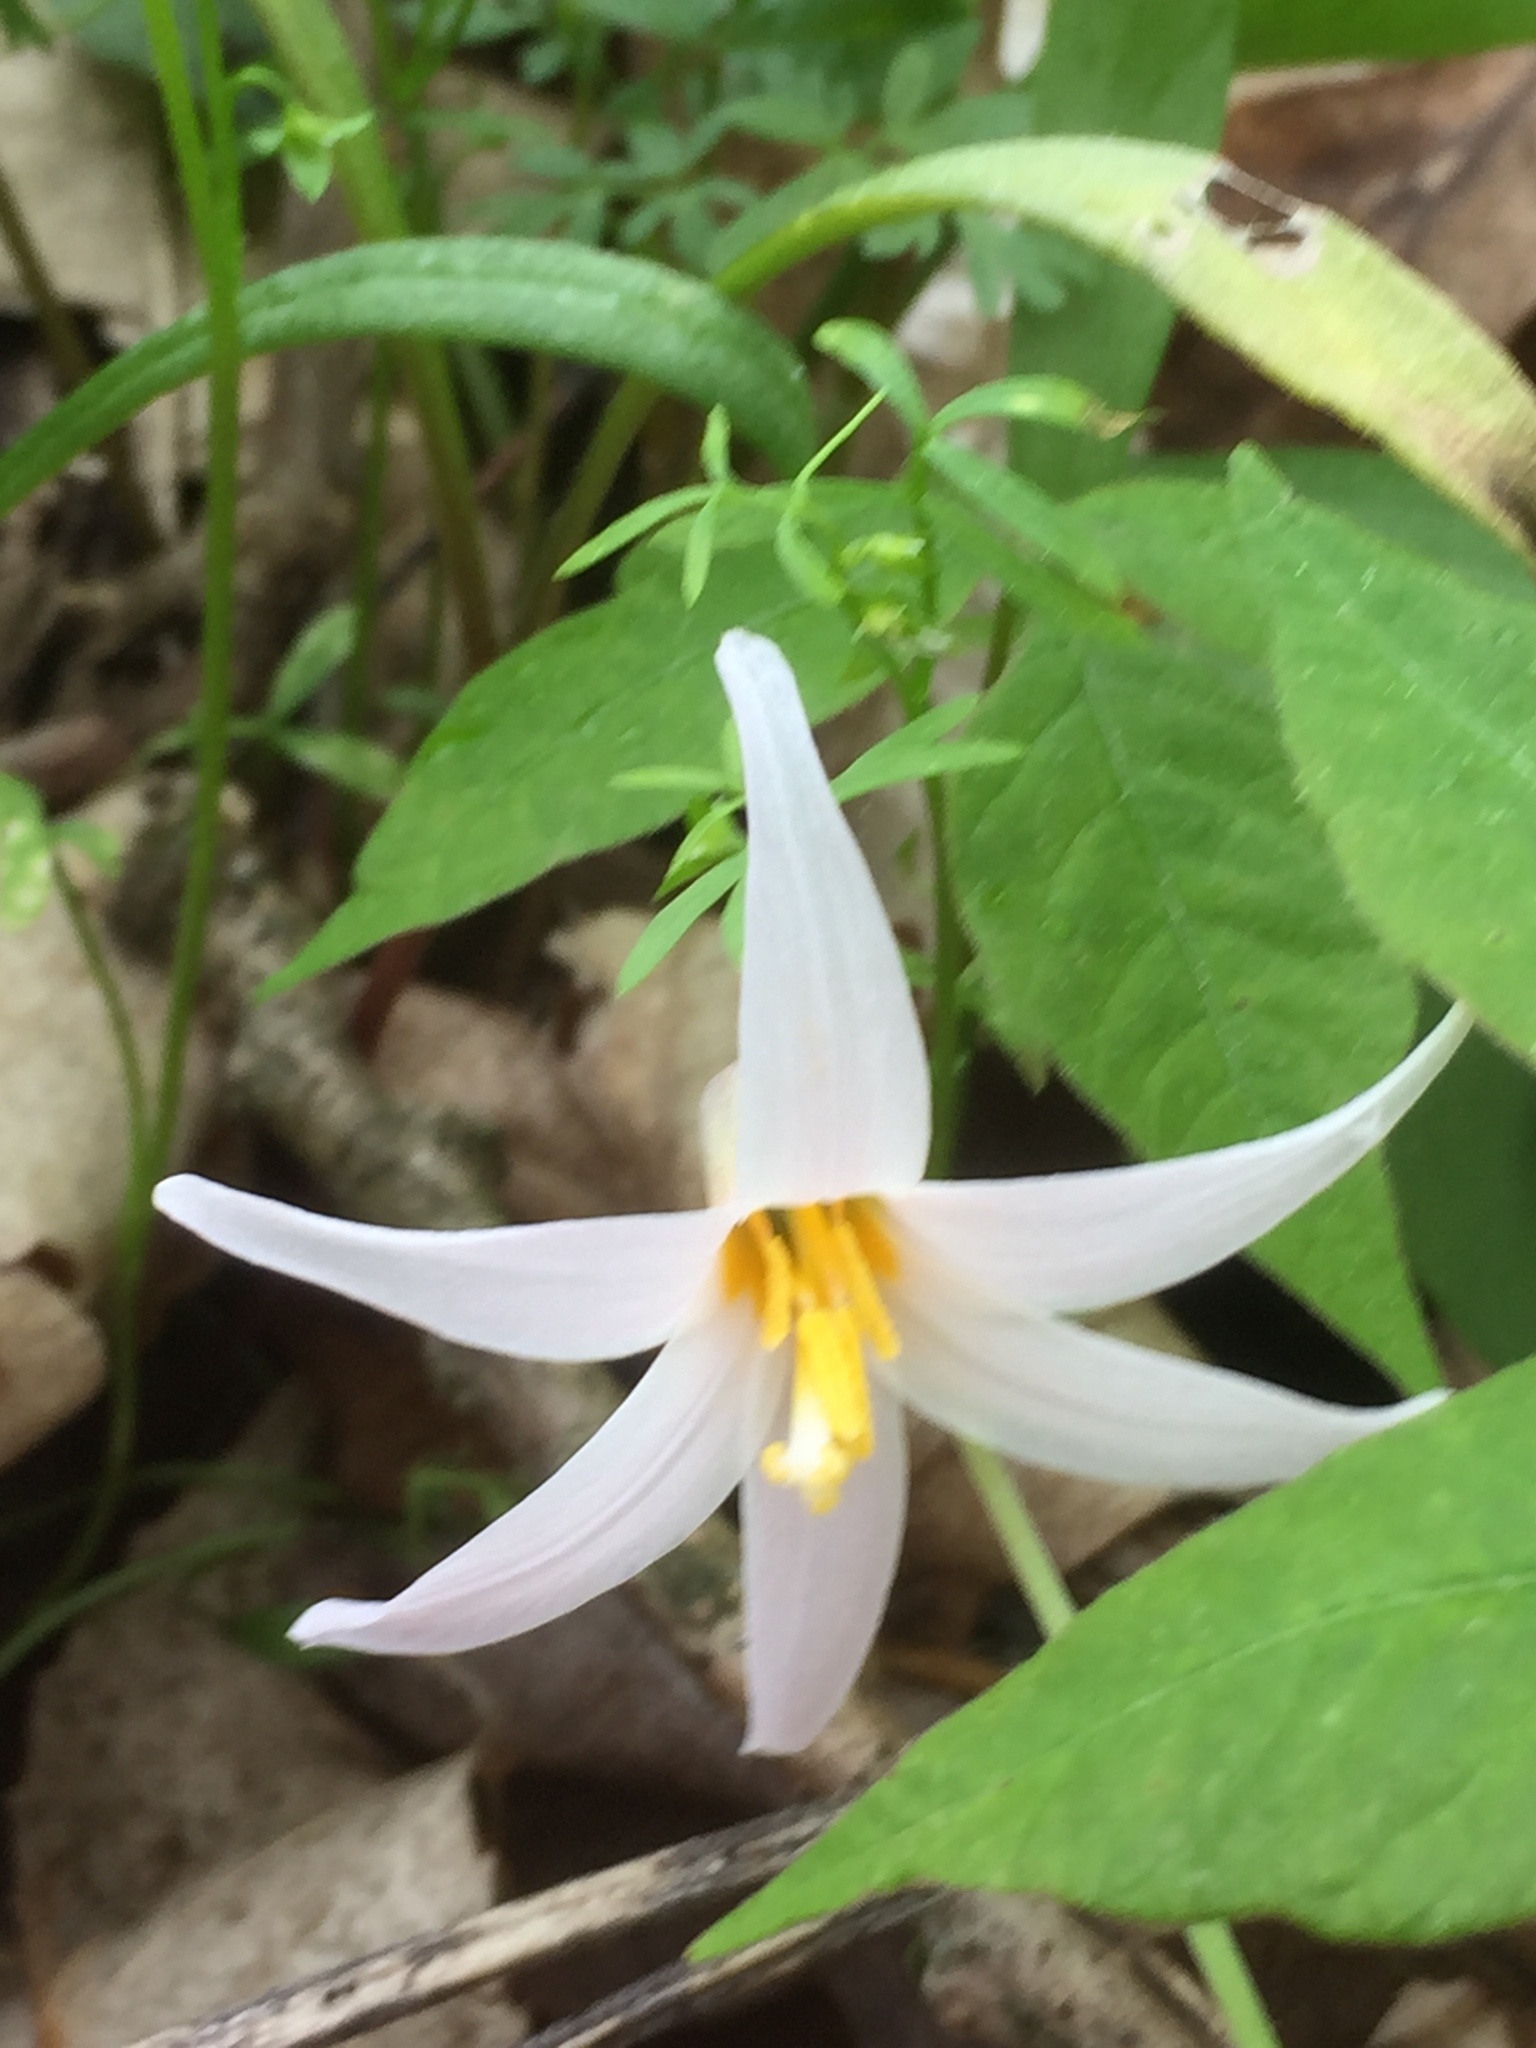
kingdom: Plantae
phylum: Tracheophyta
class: Liliopsida
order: Liliales
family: Liliaceae
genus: Erythronium
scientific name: Erythronium albidum
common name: White trout-lily
